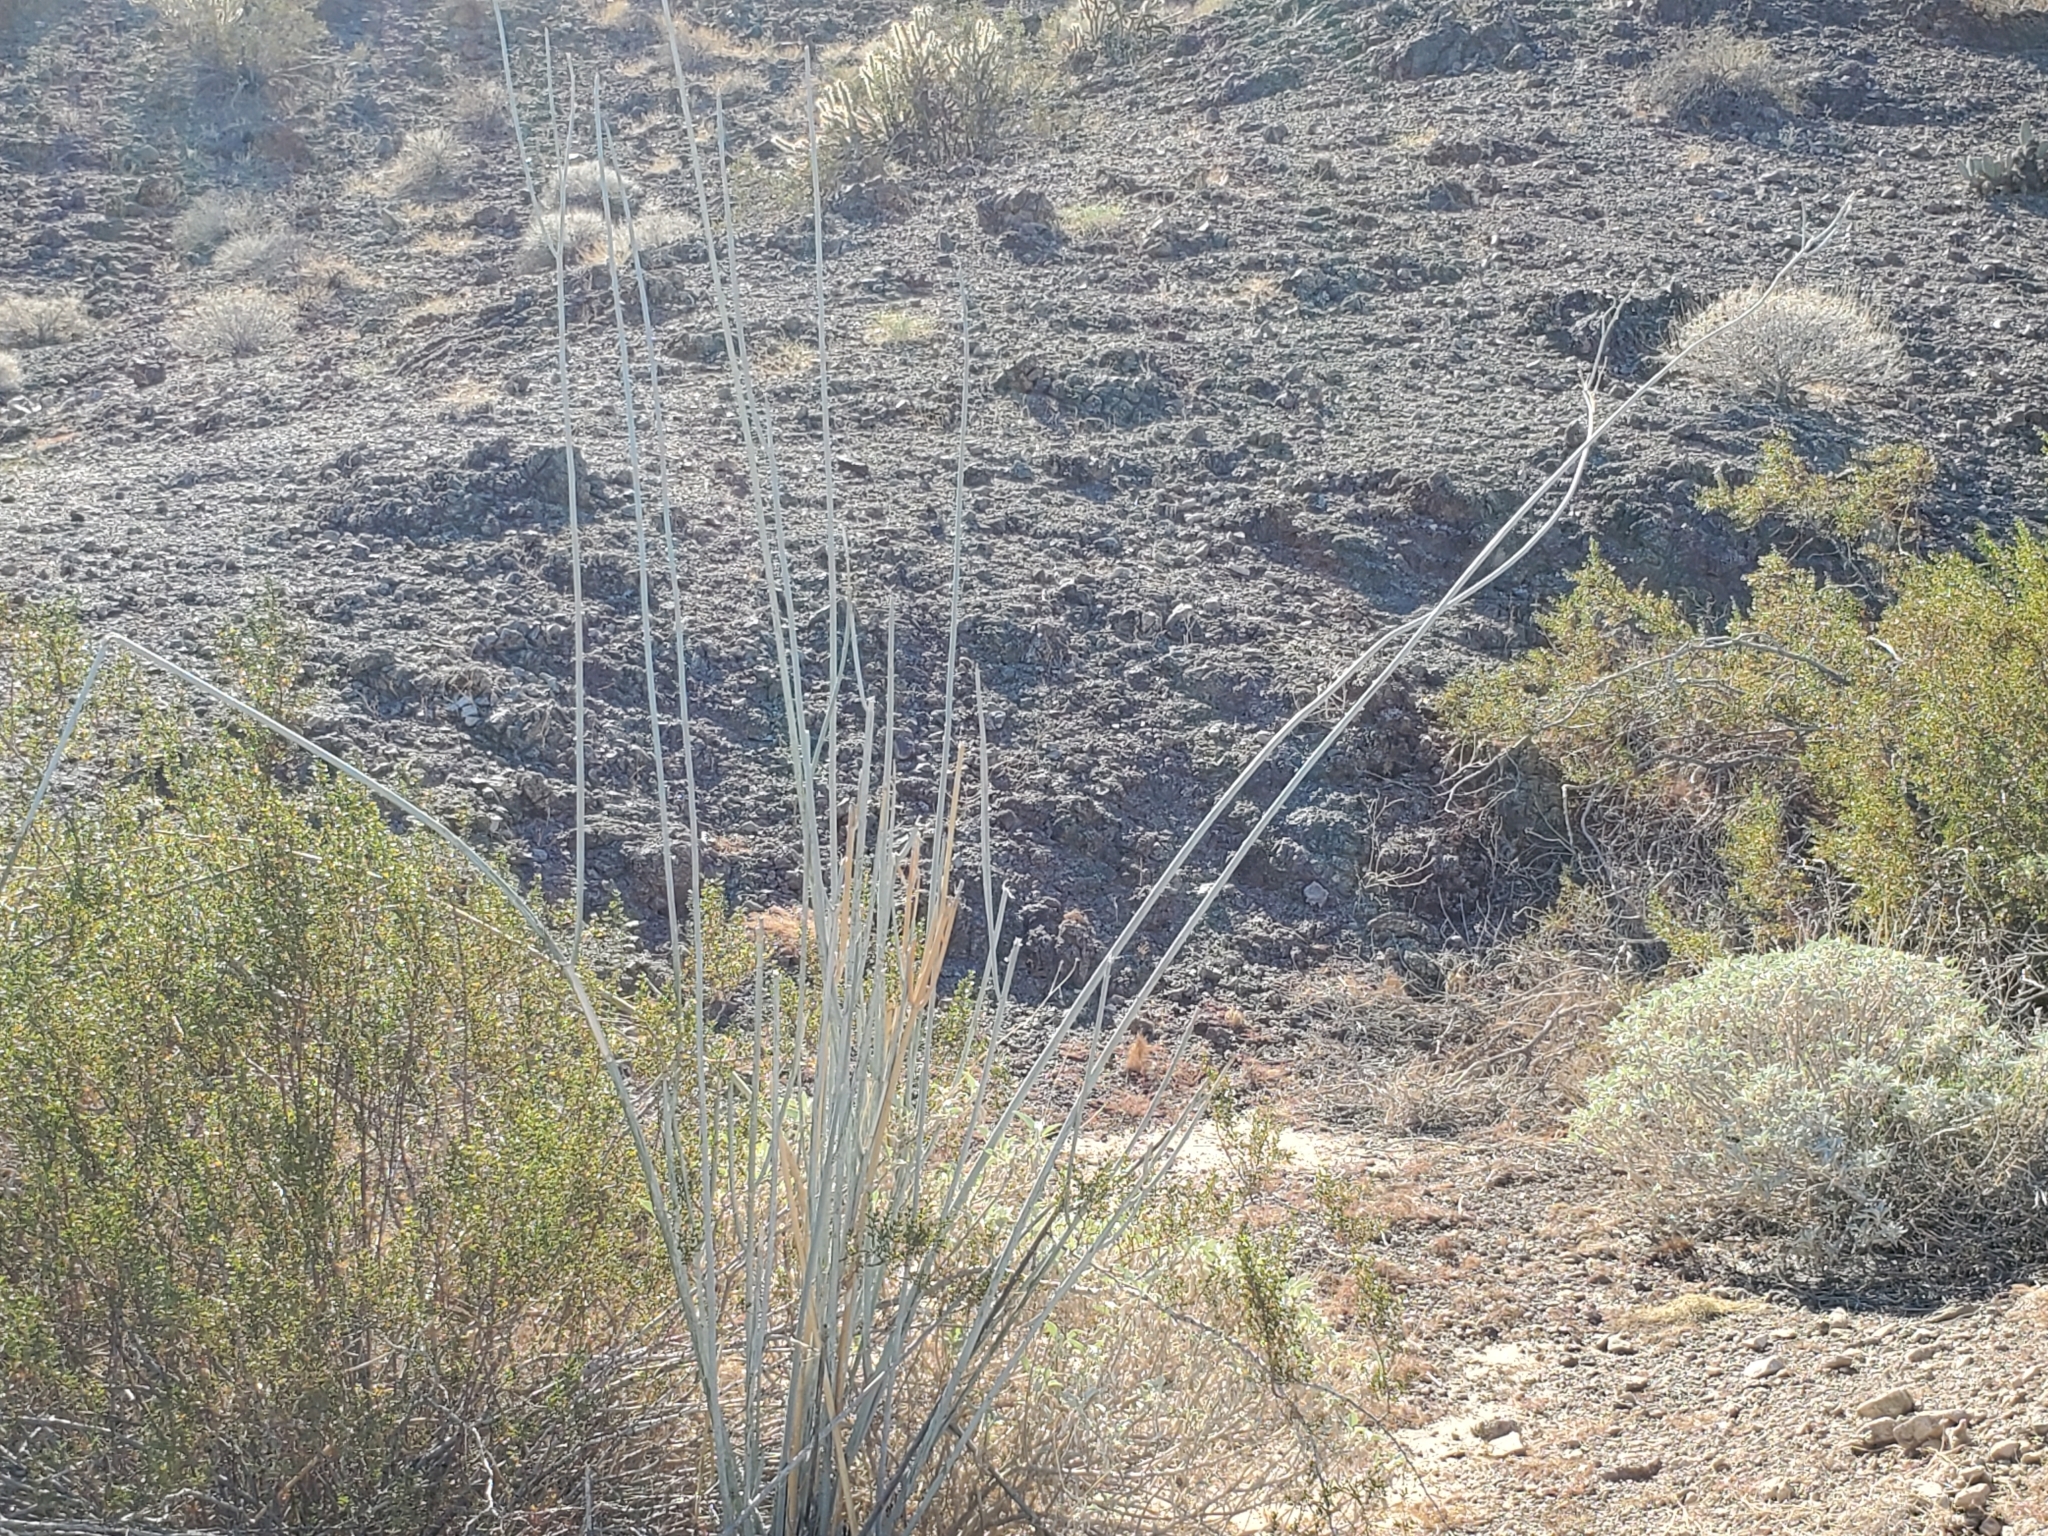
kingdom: Plantae
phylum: Tracheophyta
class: Magnoliopsida
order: Gentianales
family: Apocynaceae
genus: Asclepias
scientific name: Asclepias albicans
